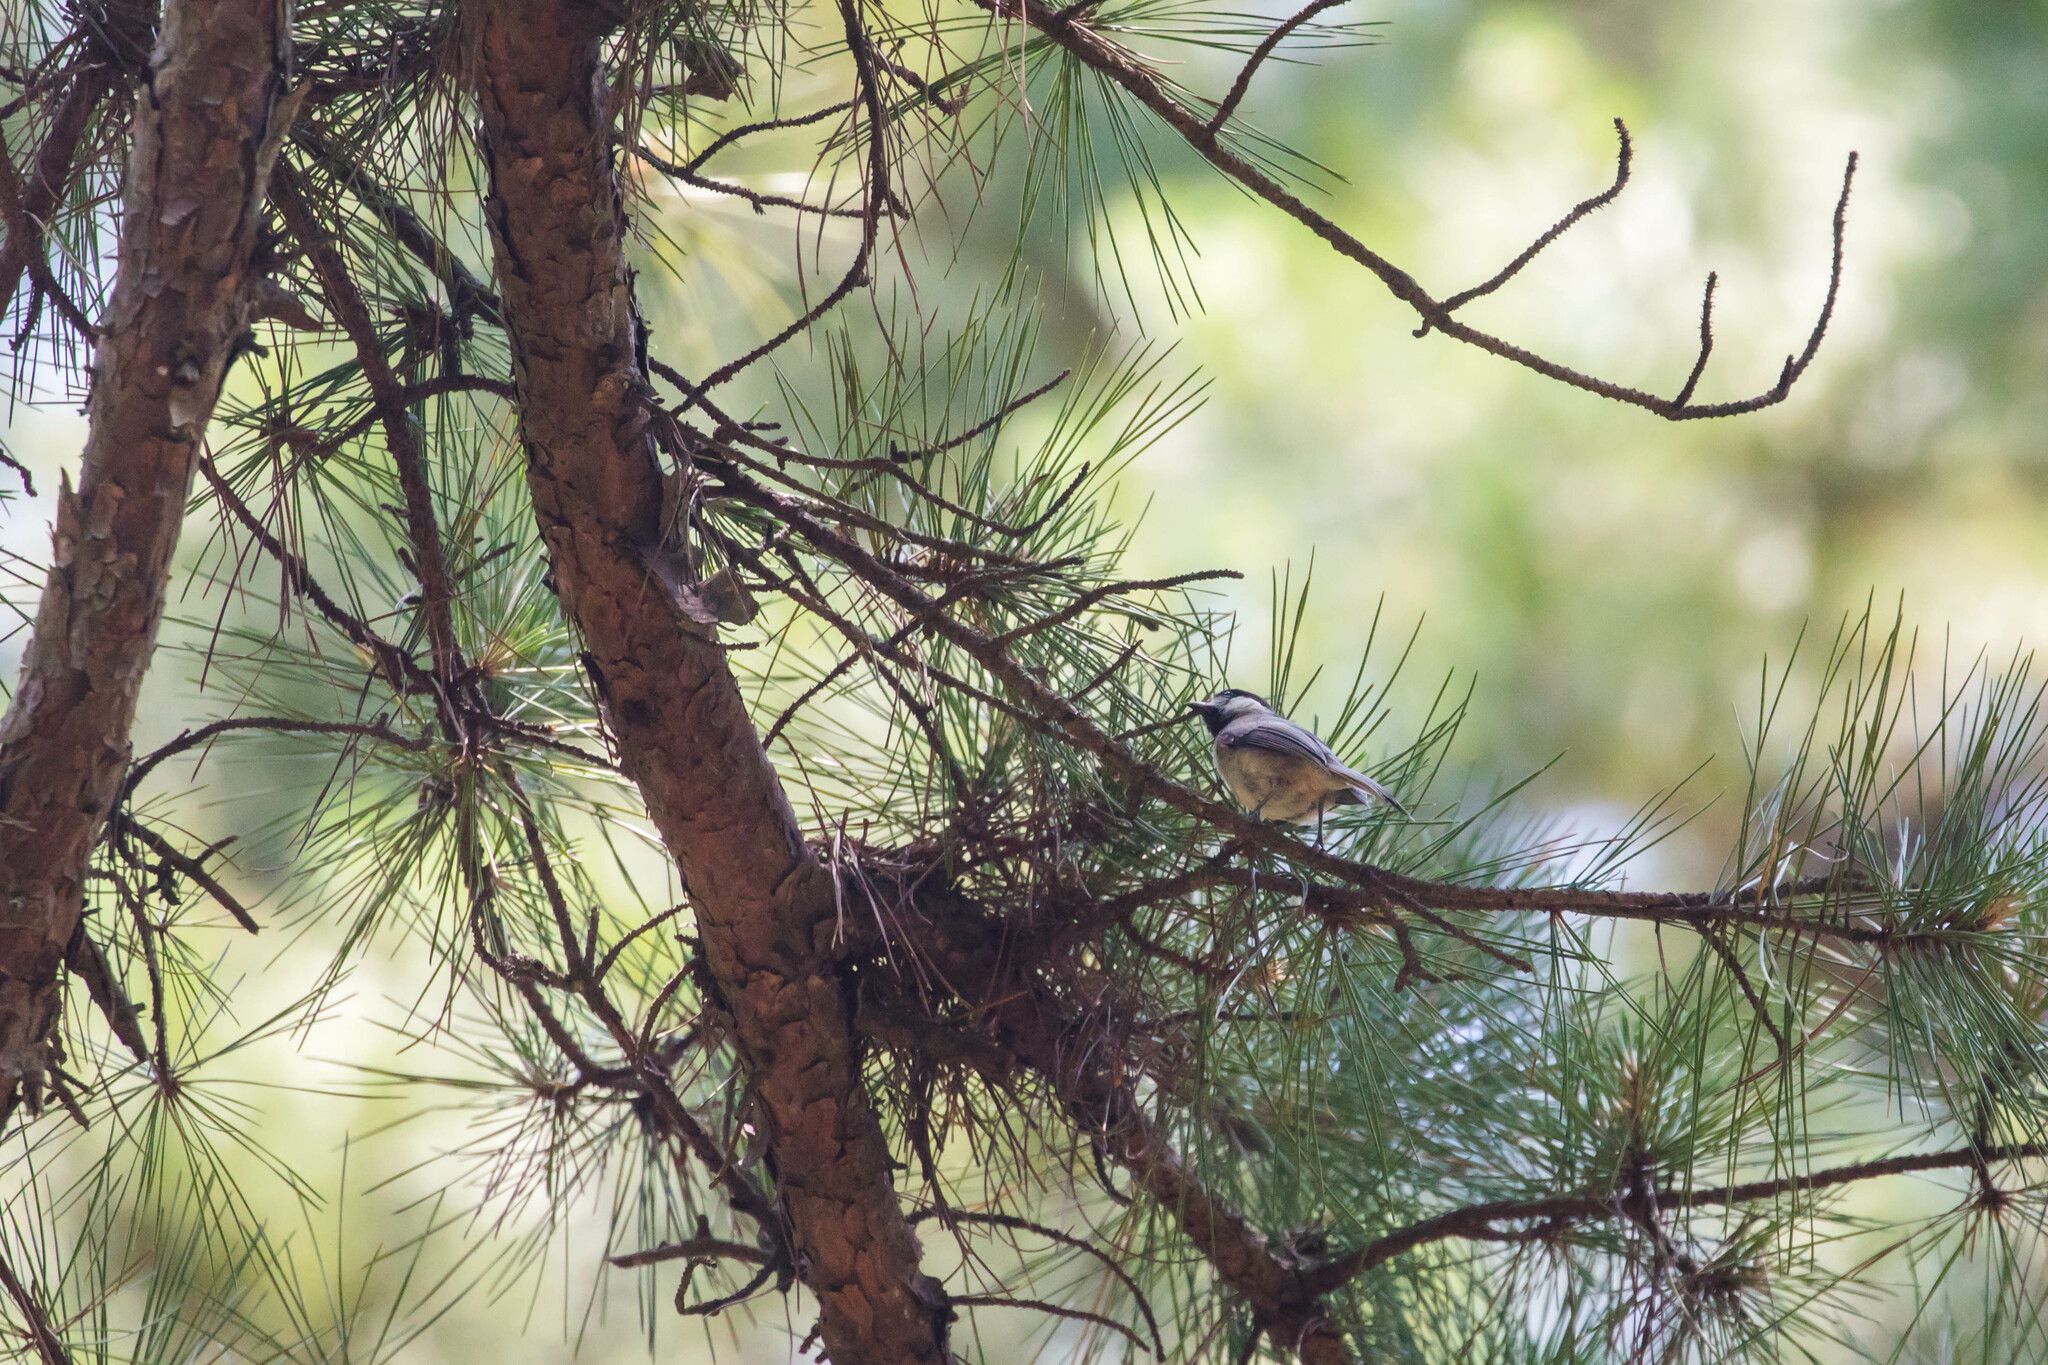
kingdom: Animalia
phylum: Chordata
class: Aves
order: Passeriformes
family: Paridae
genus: Poecile
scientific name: Poecile carolinensis
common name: Carolina chickadee
